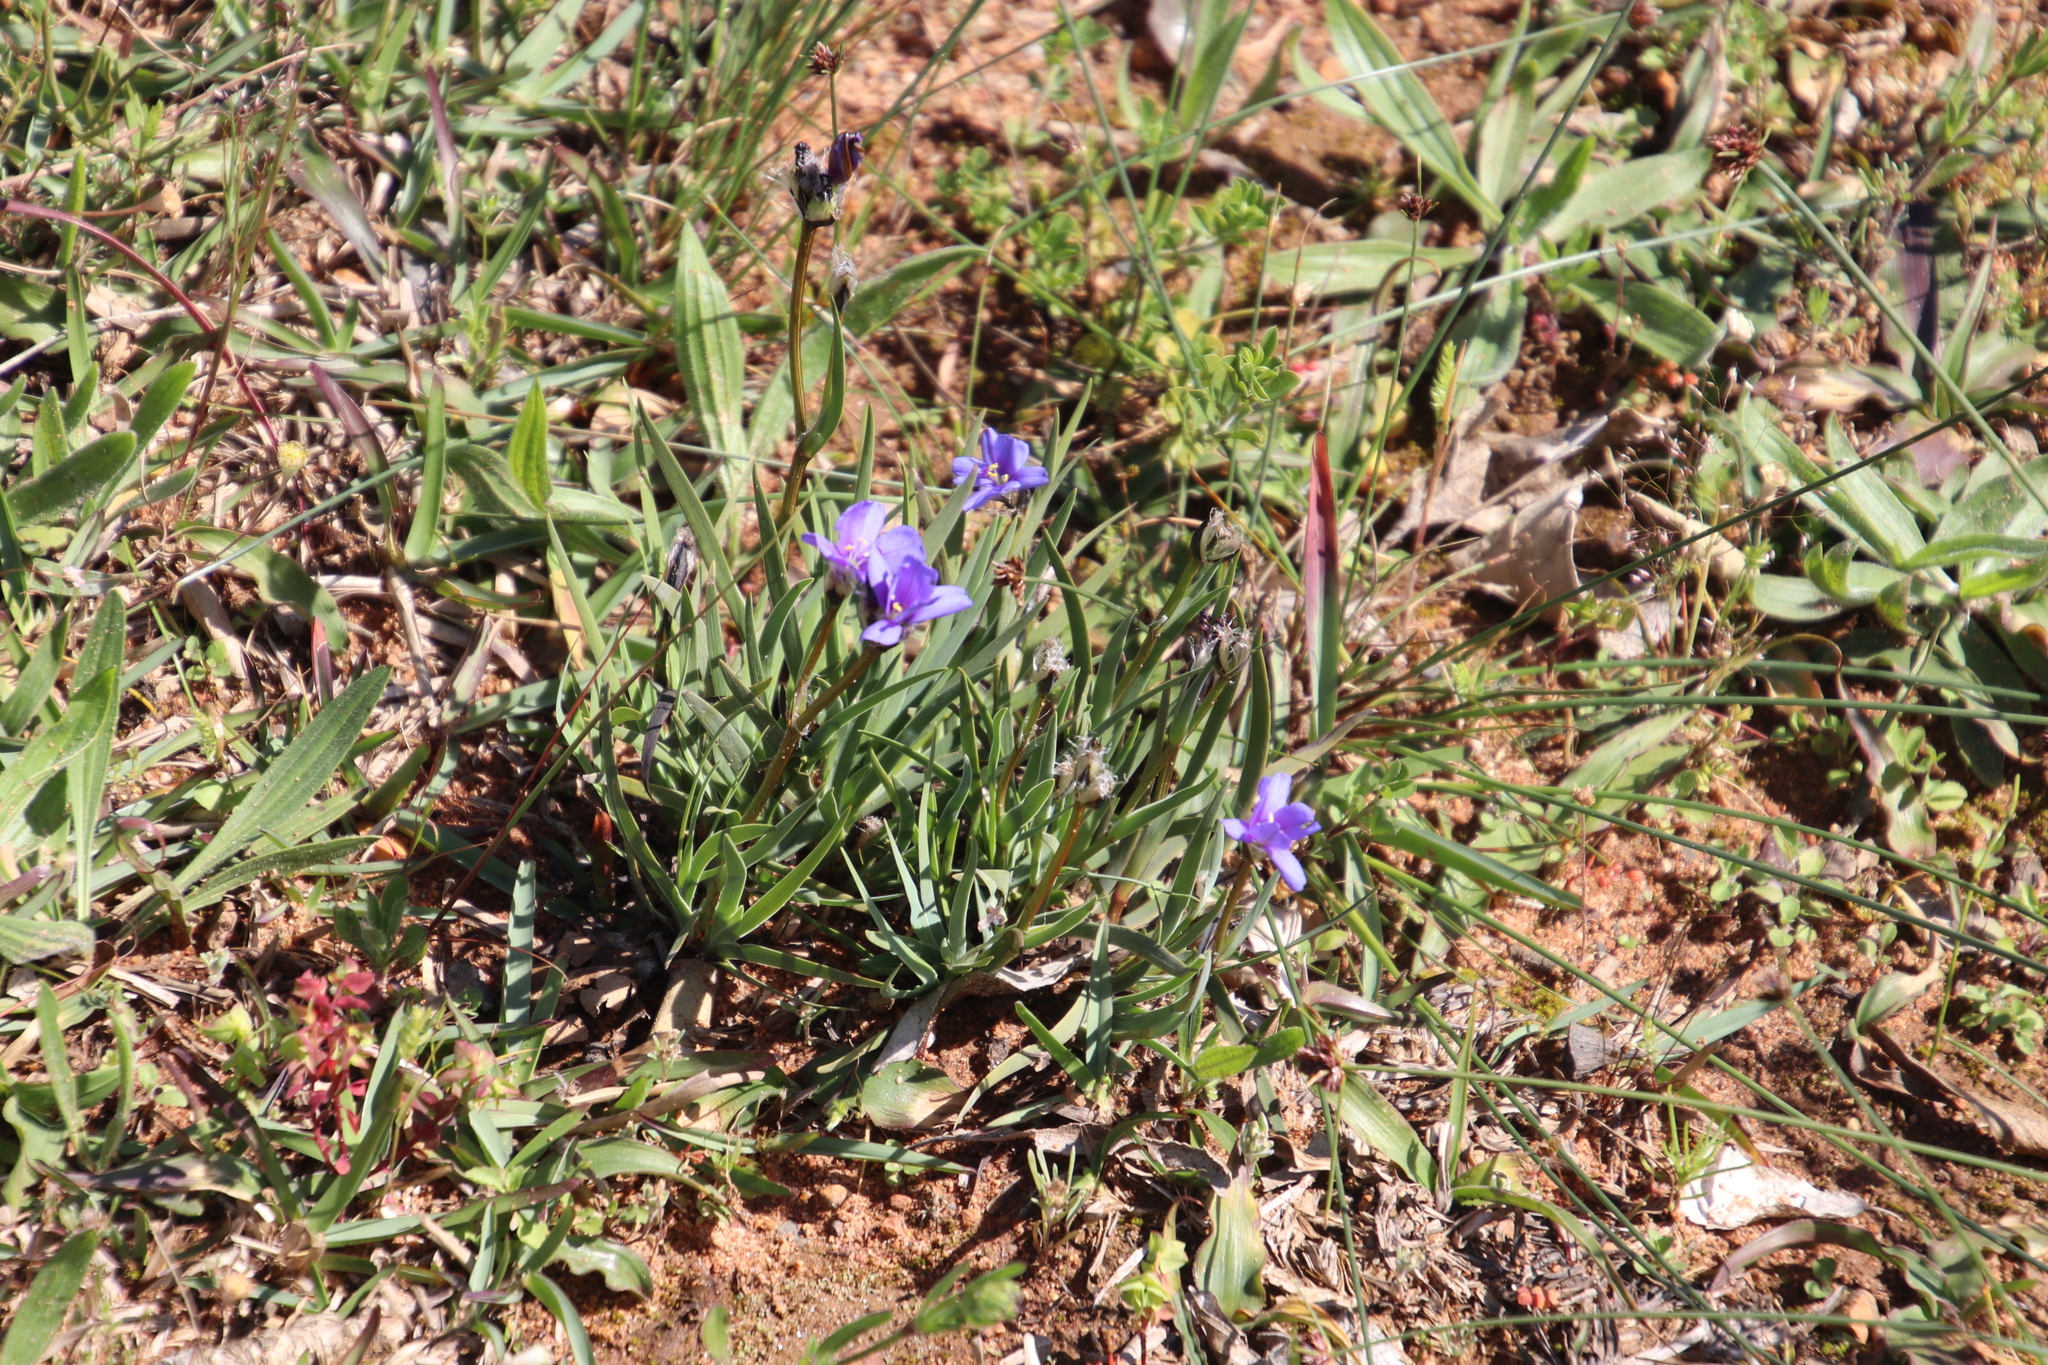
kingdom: Plantae
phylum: Tracheophyta
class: Liliopsida
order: Asparagales
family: Iridaceae
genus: Aristea
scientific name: Aristea africana
